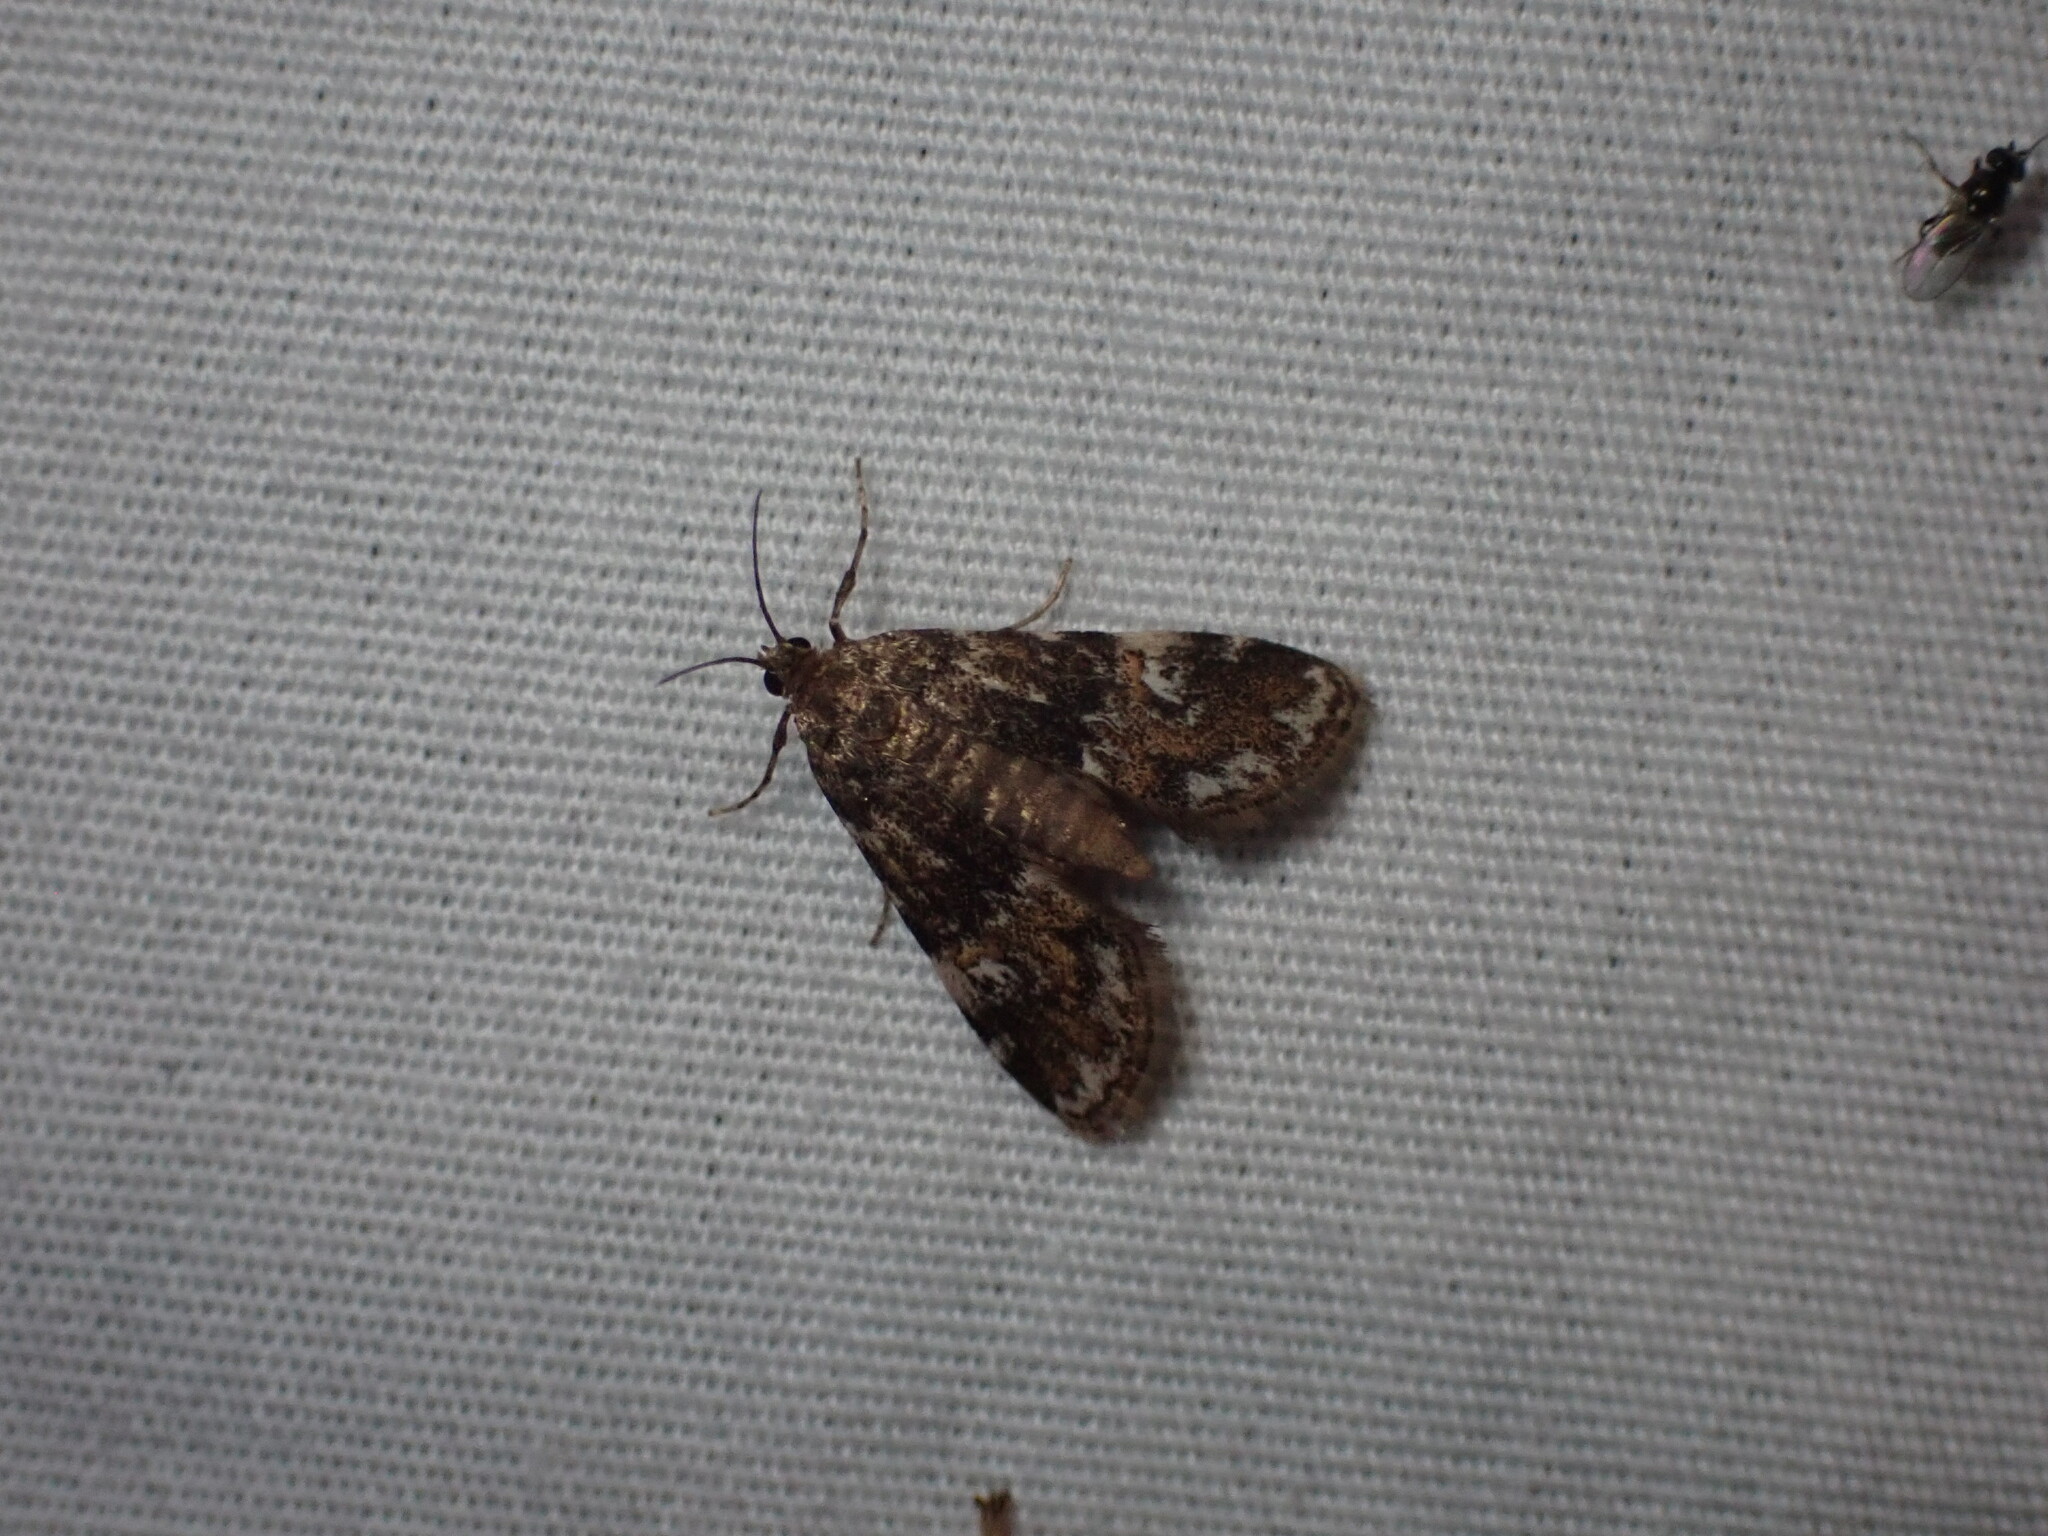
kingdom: Animalia
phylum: Arthropoda
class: Insecta
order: Lepidoptera
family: Crambidae
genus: Elophila
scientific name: Elophila obliteralis
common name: Waterlily leafcutter moth
